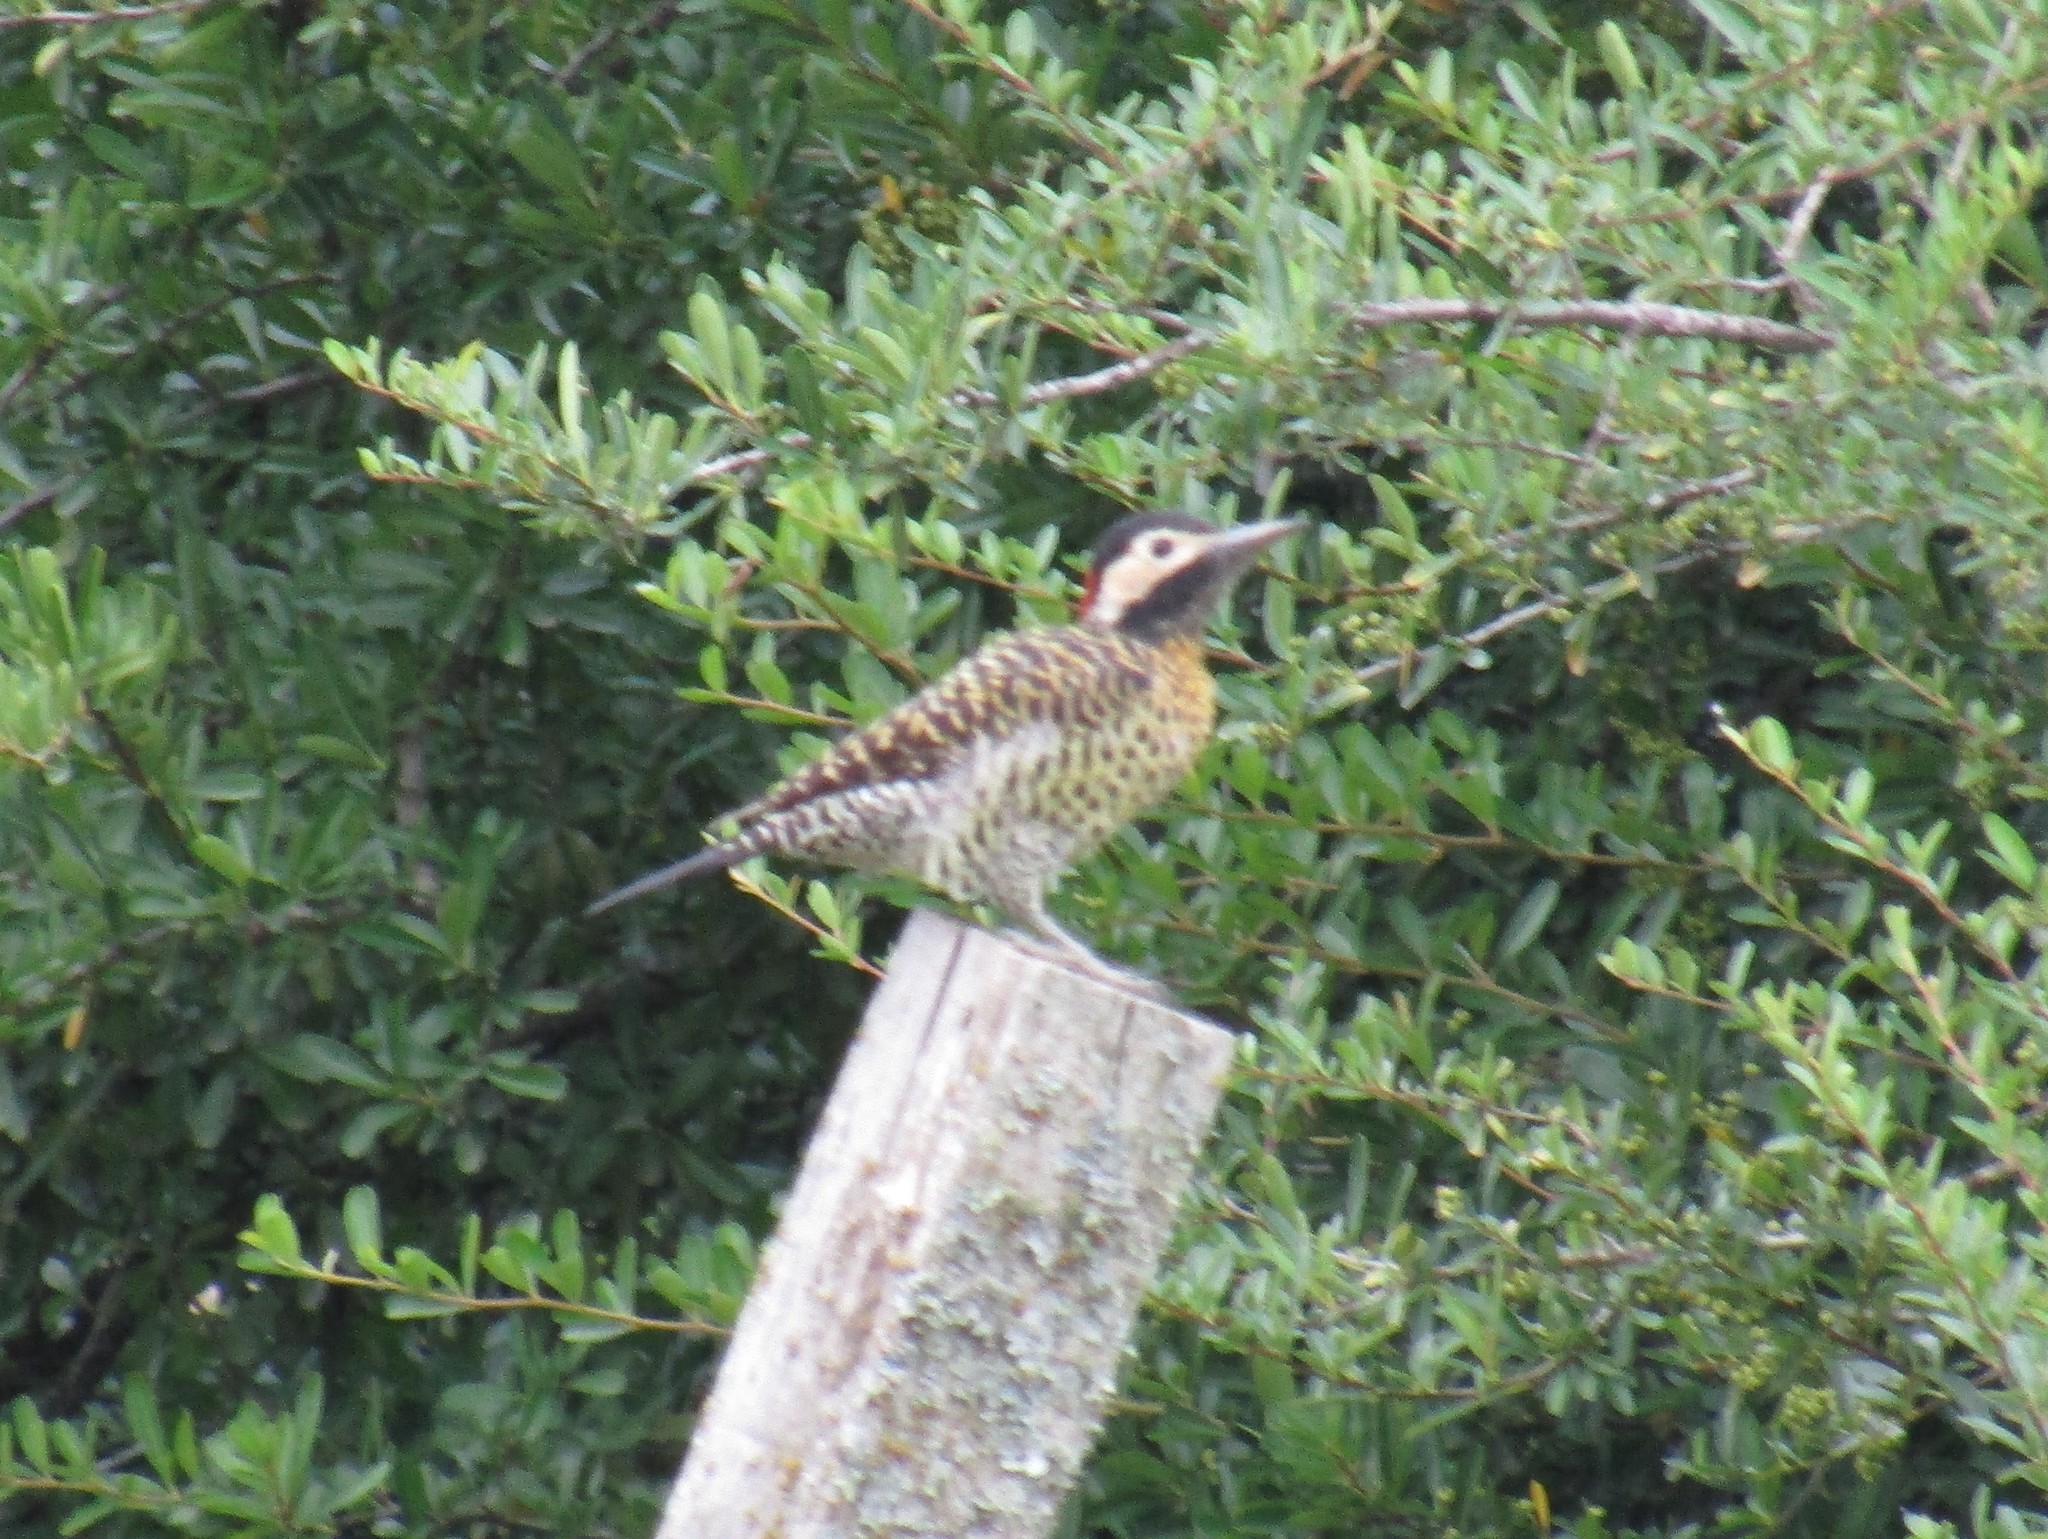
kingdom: Animalia
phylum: Chordata
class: Aves
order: Piciformes
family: Picidae
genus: Colaptes
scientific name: Colaptes melanochloros
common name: Green-barred woodpecker
